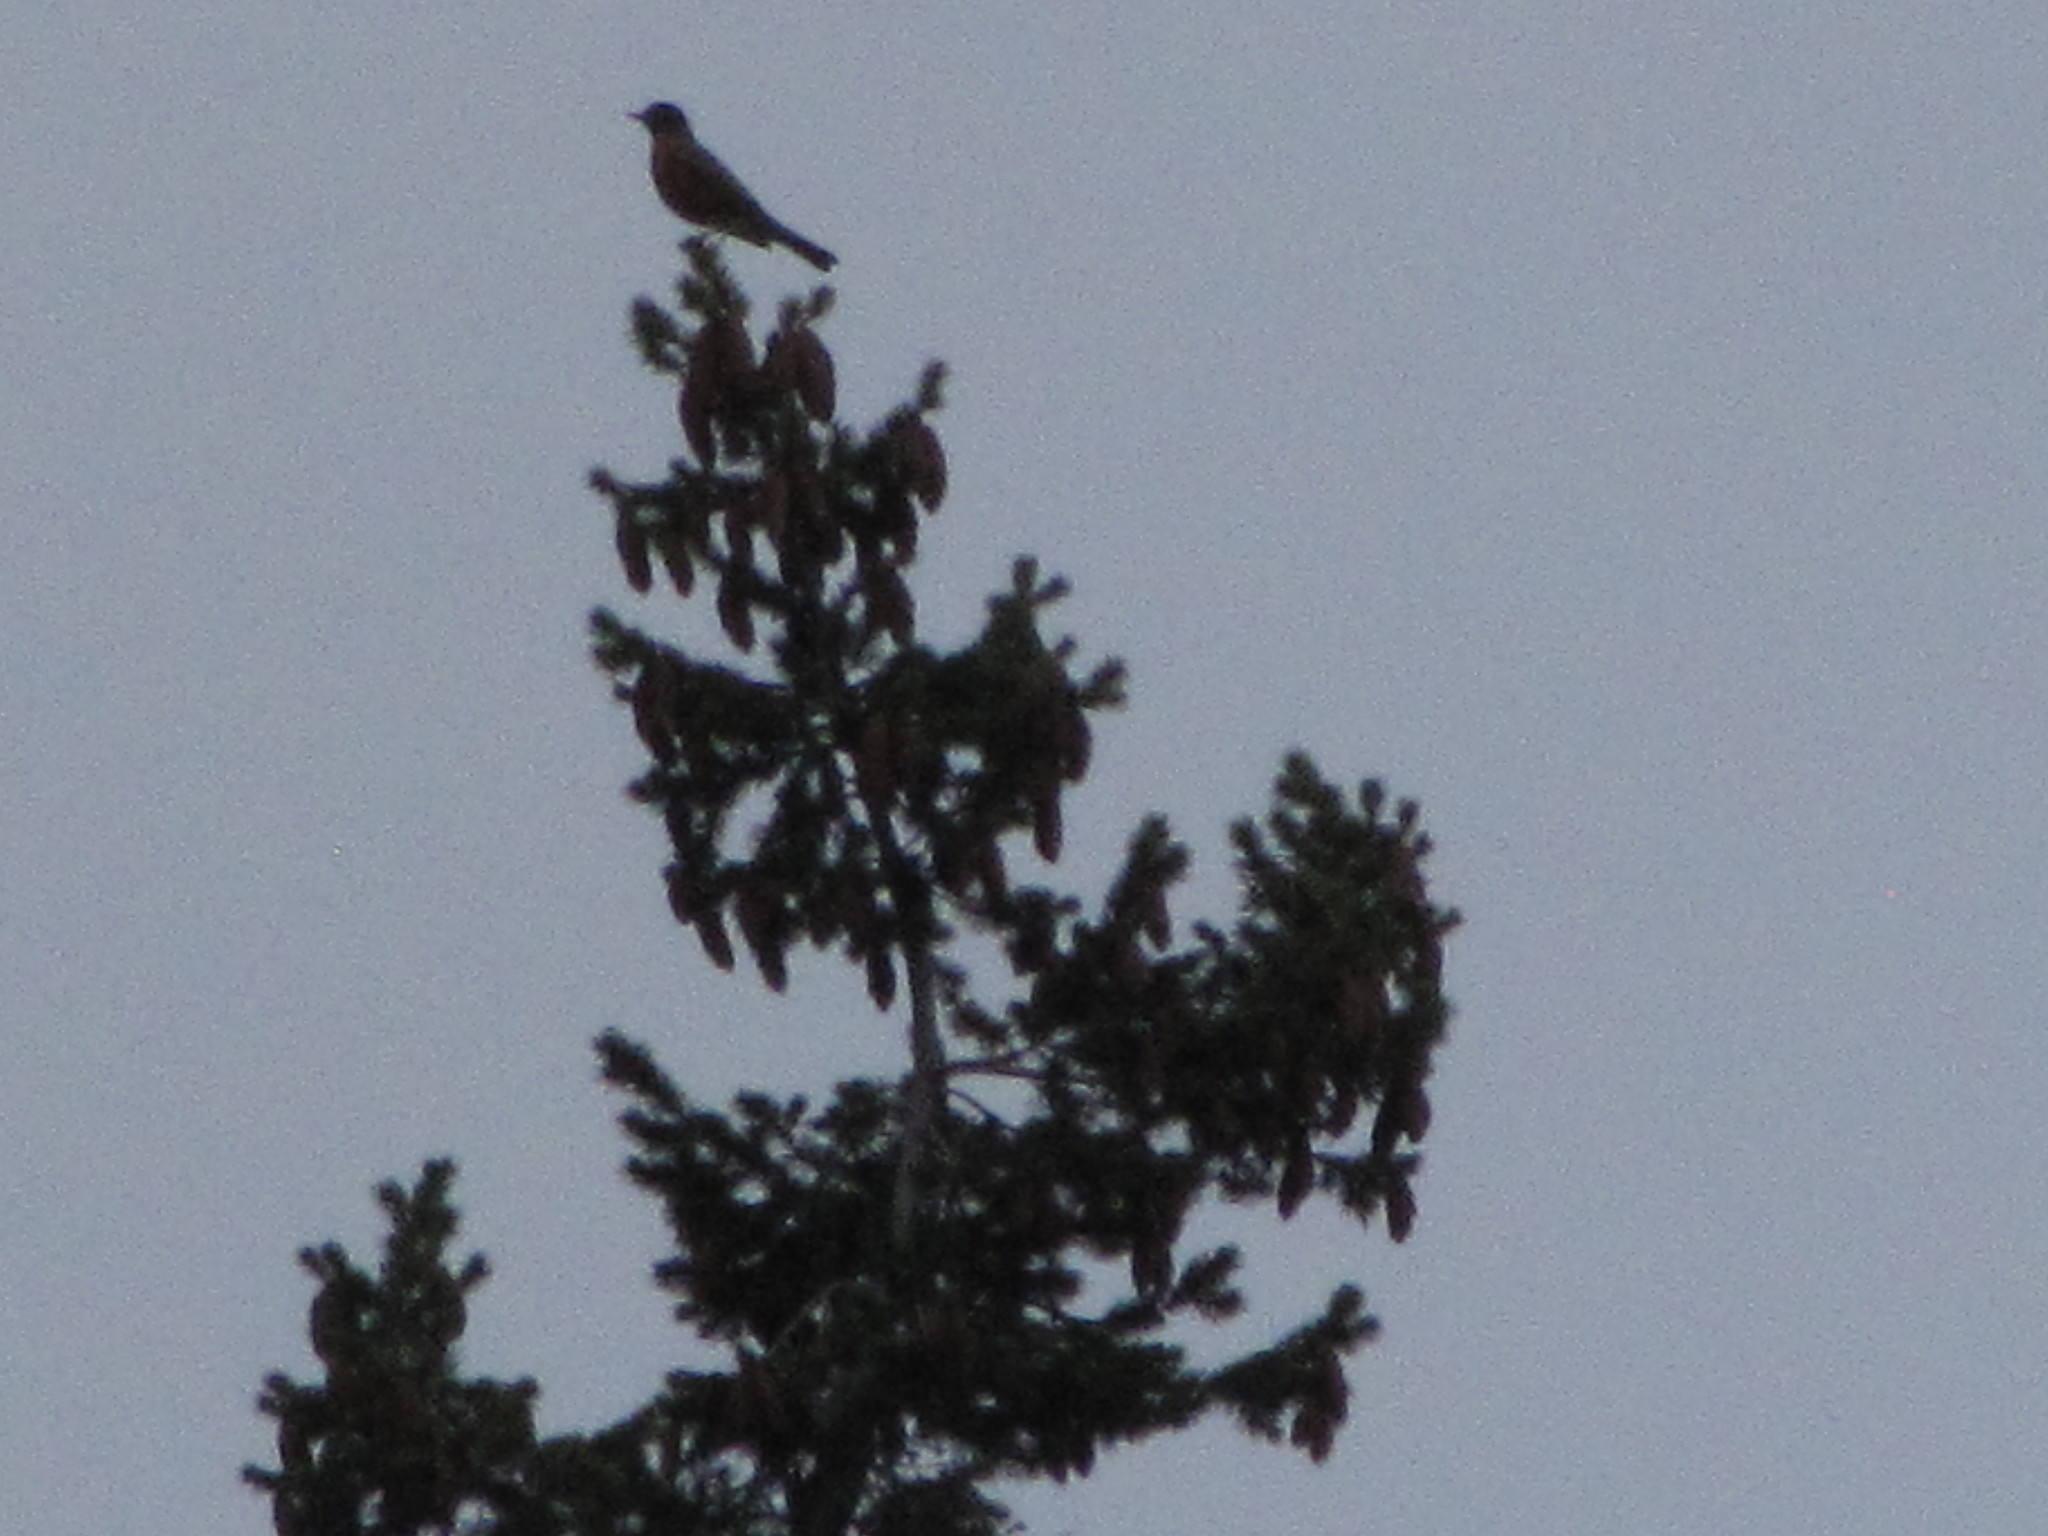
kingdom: Animalia
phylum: Chordata
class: Aves
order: Passeriformes
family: Turdidae
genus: Turdus
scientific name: Turdus migratorius
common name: American robin
